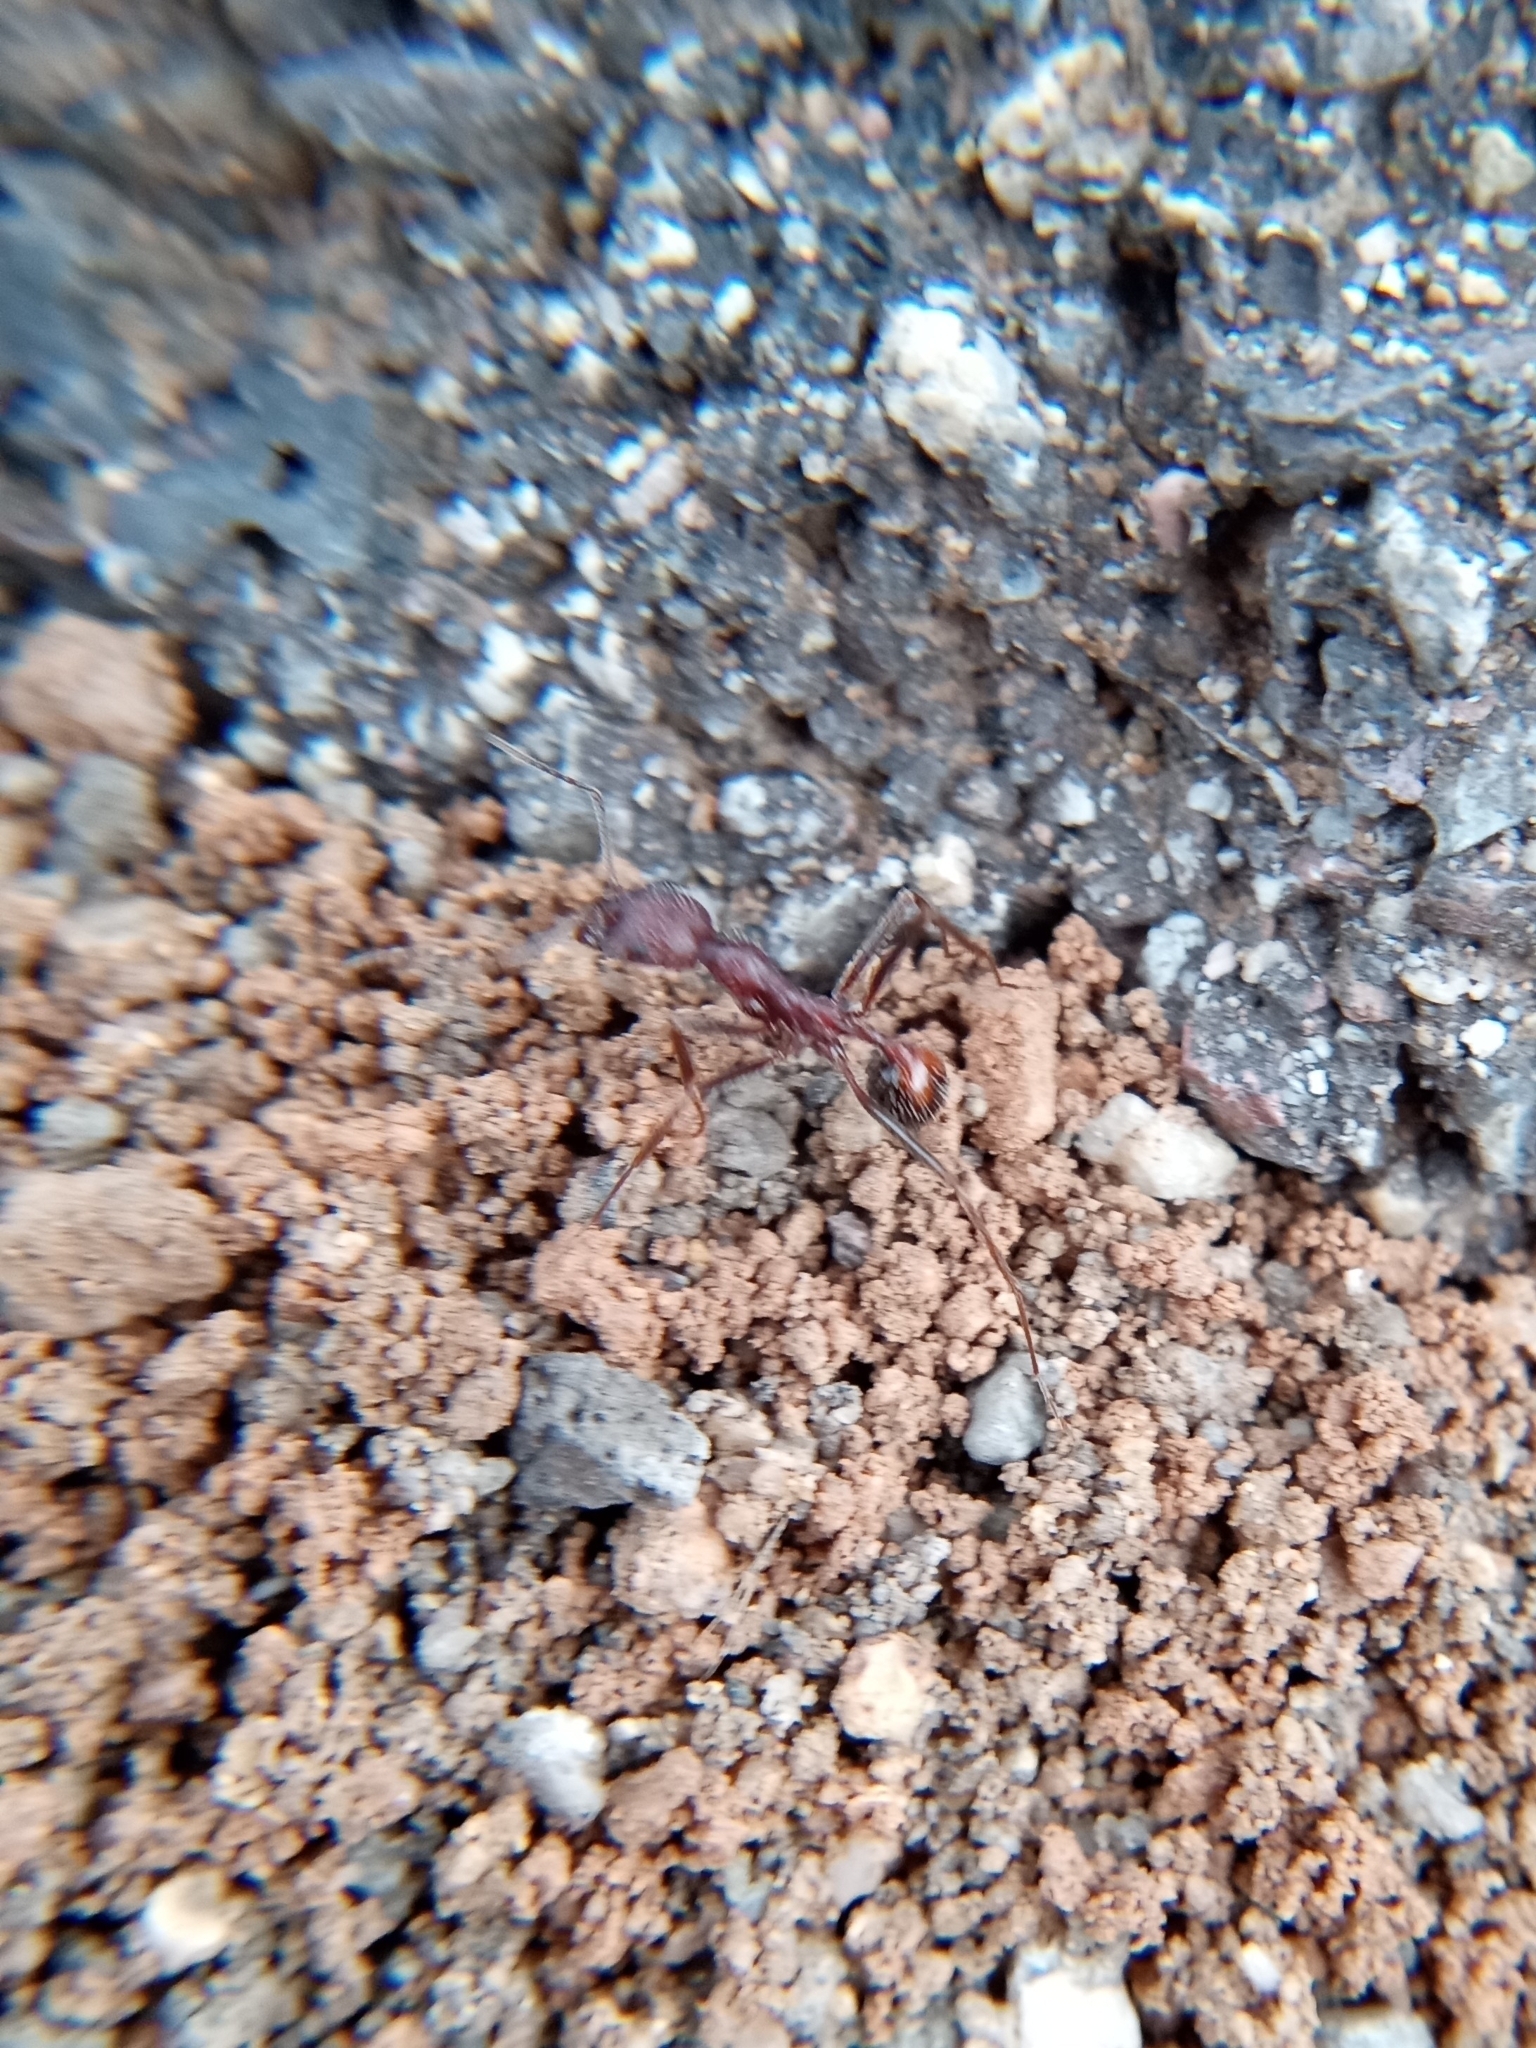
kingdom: Animalia
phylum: Arthropoda
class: Insecta
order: Hymenoptera
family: Formicidae
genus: Novomessor
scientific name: Novomessor albisetosa
